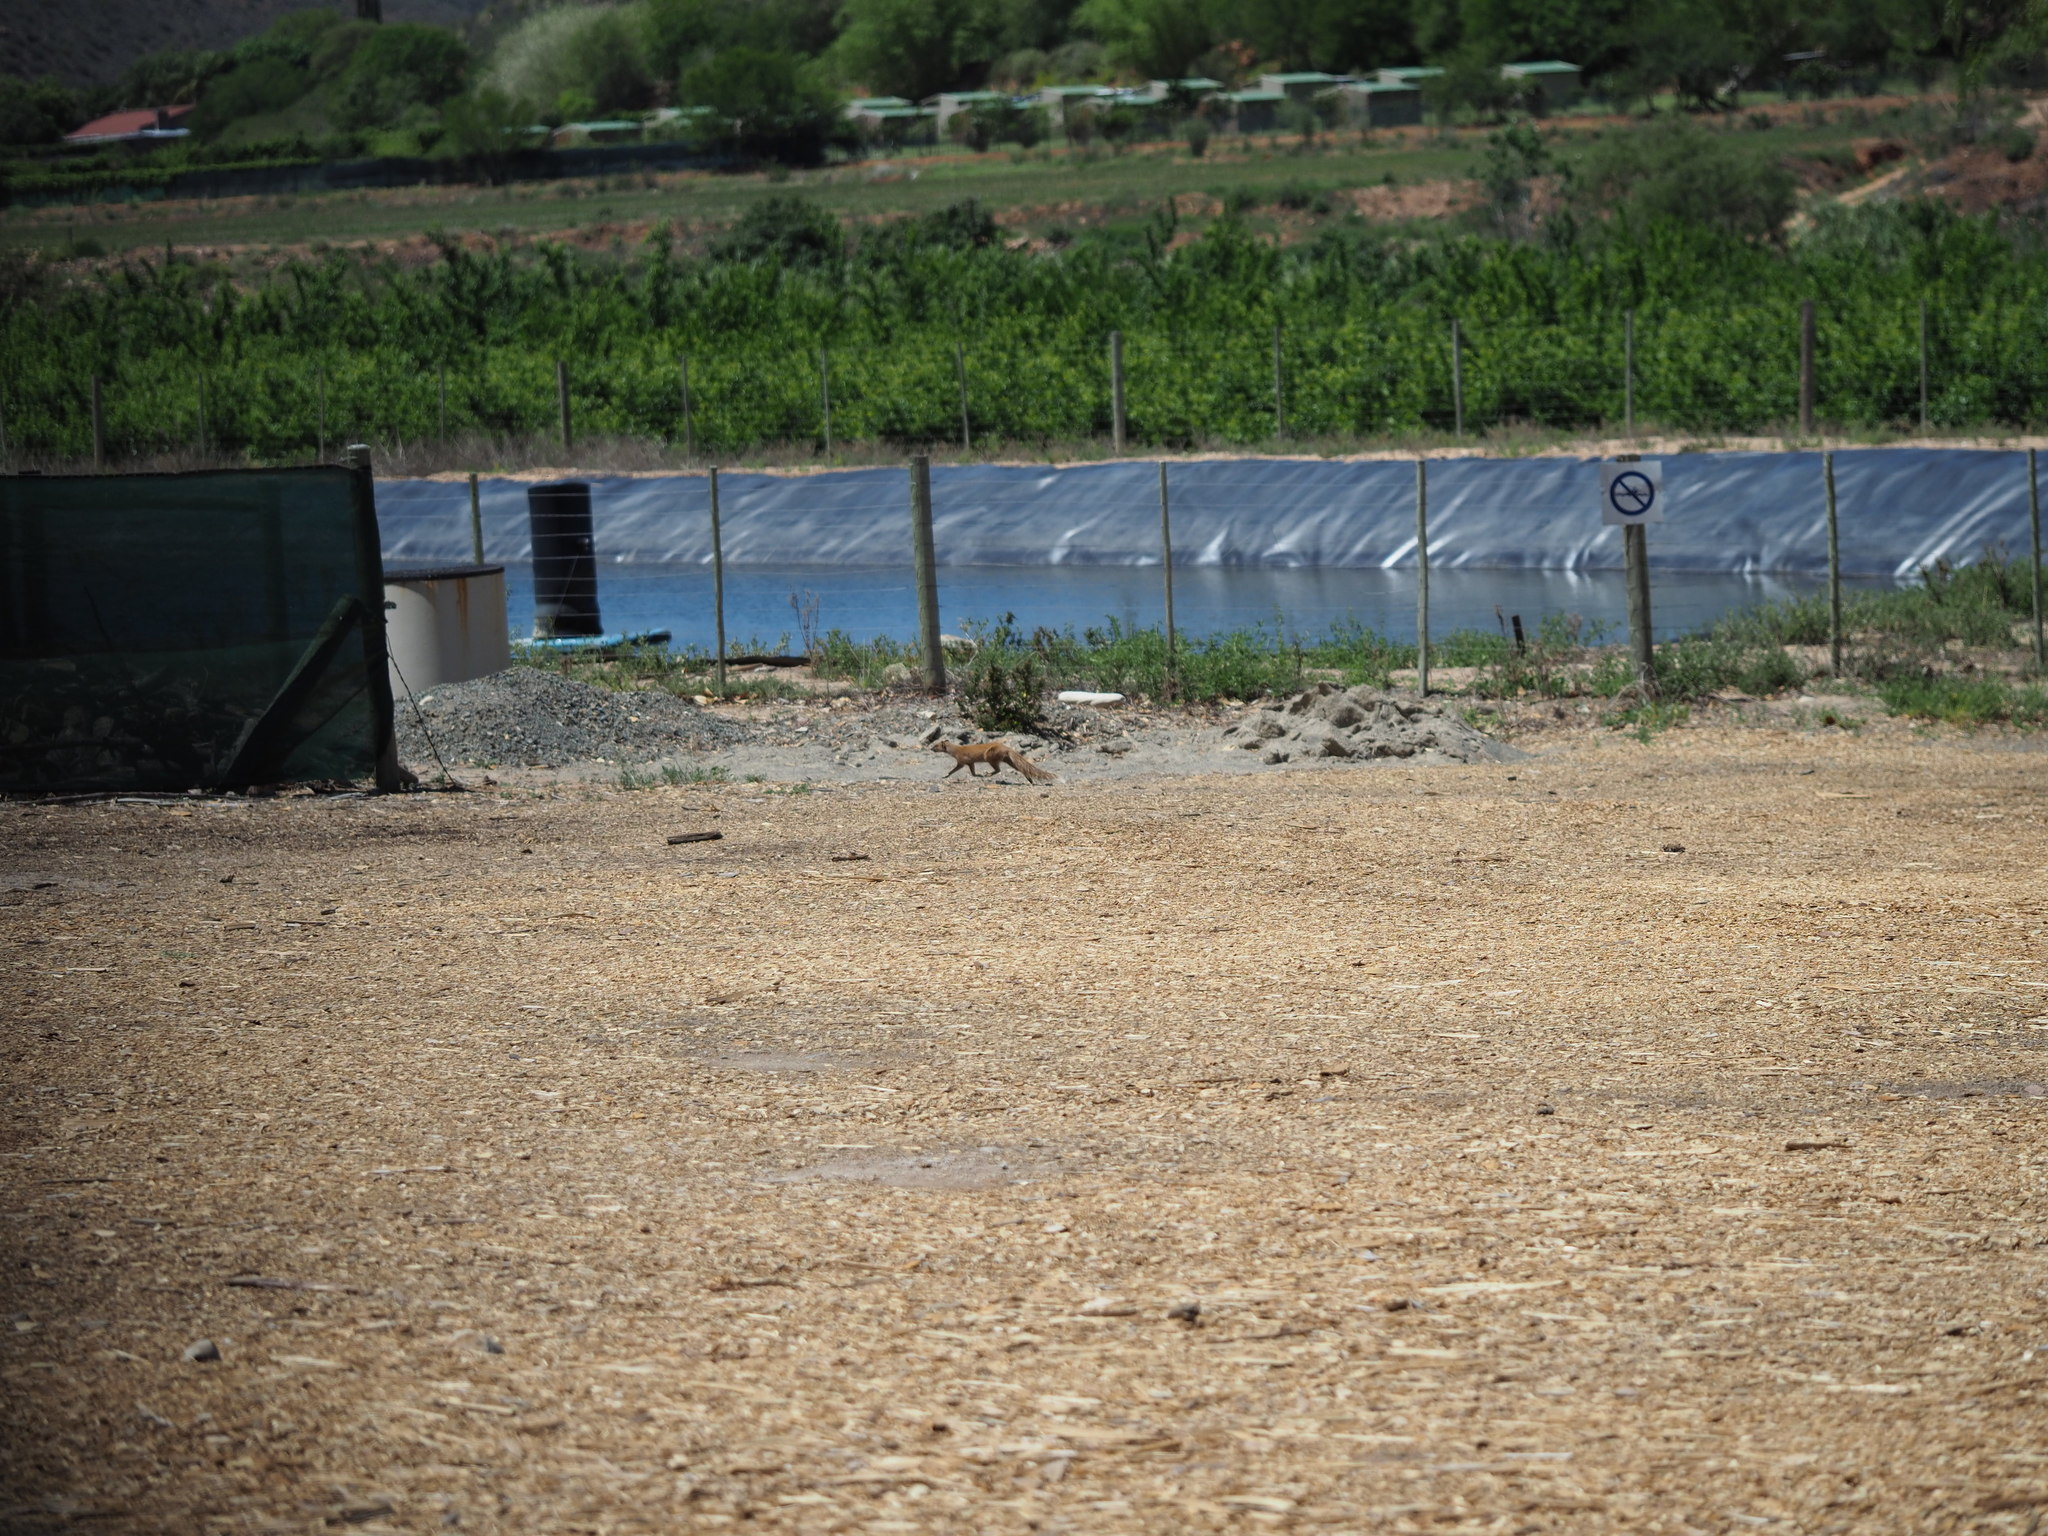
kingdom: Animalia
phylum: Chordata
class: Mammalia
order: Carnivora
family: Herpestidae
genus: Cynictis
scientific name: Cynictis penicillata
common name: Yellow mongoose
